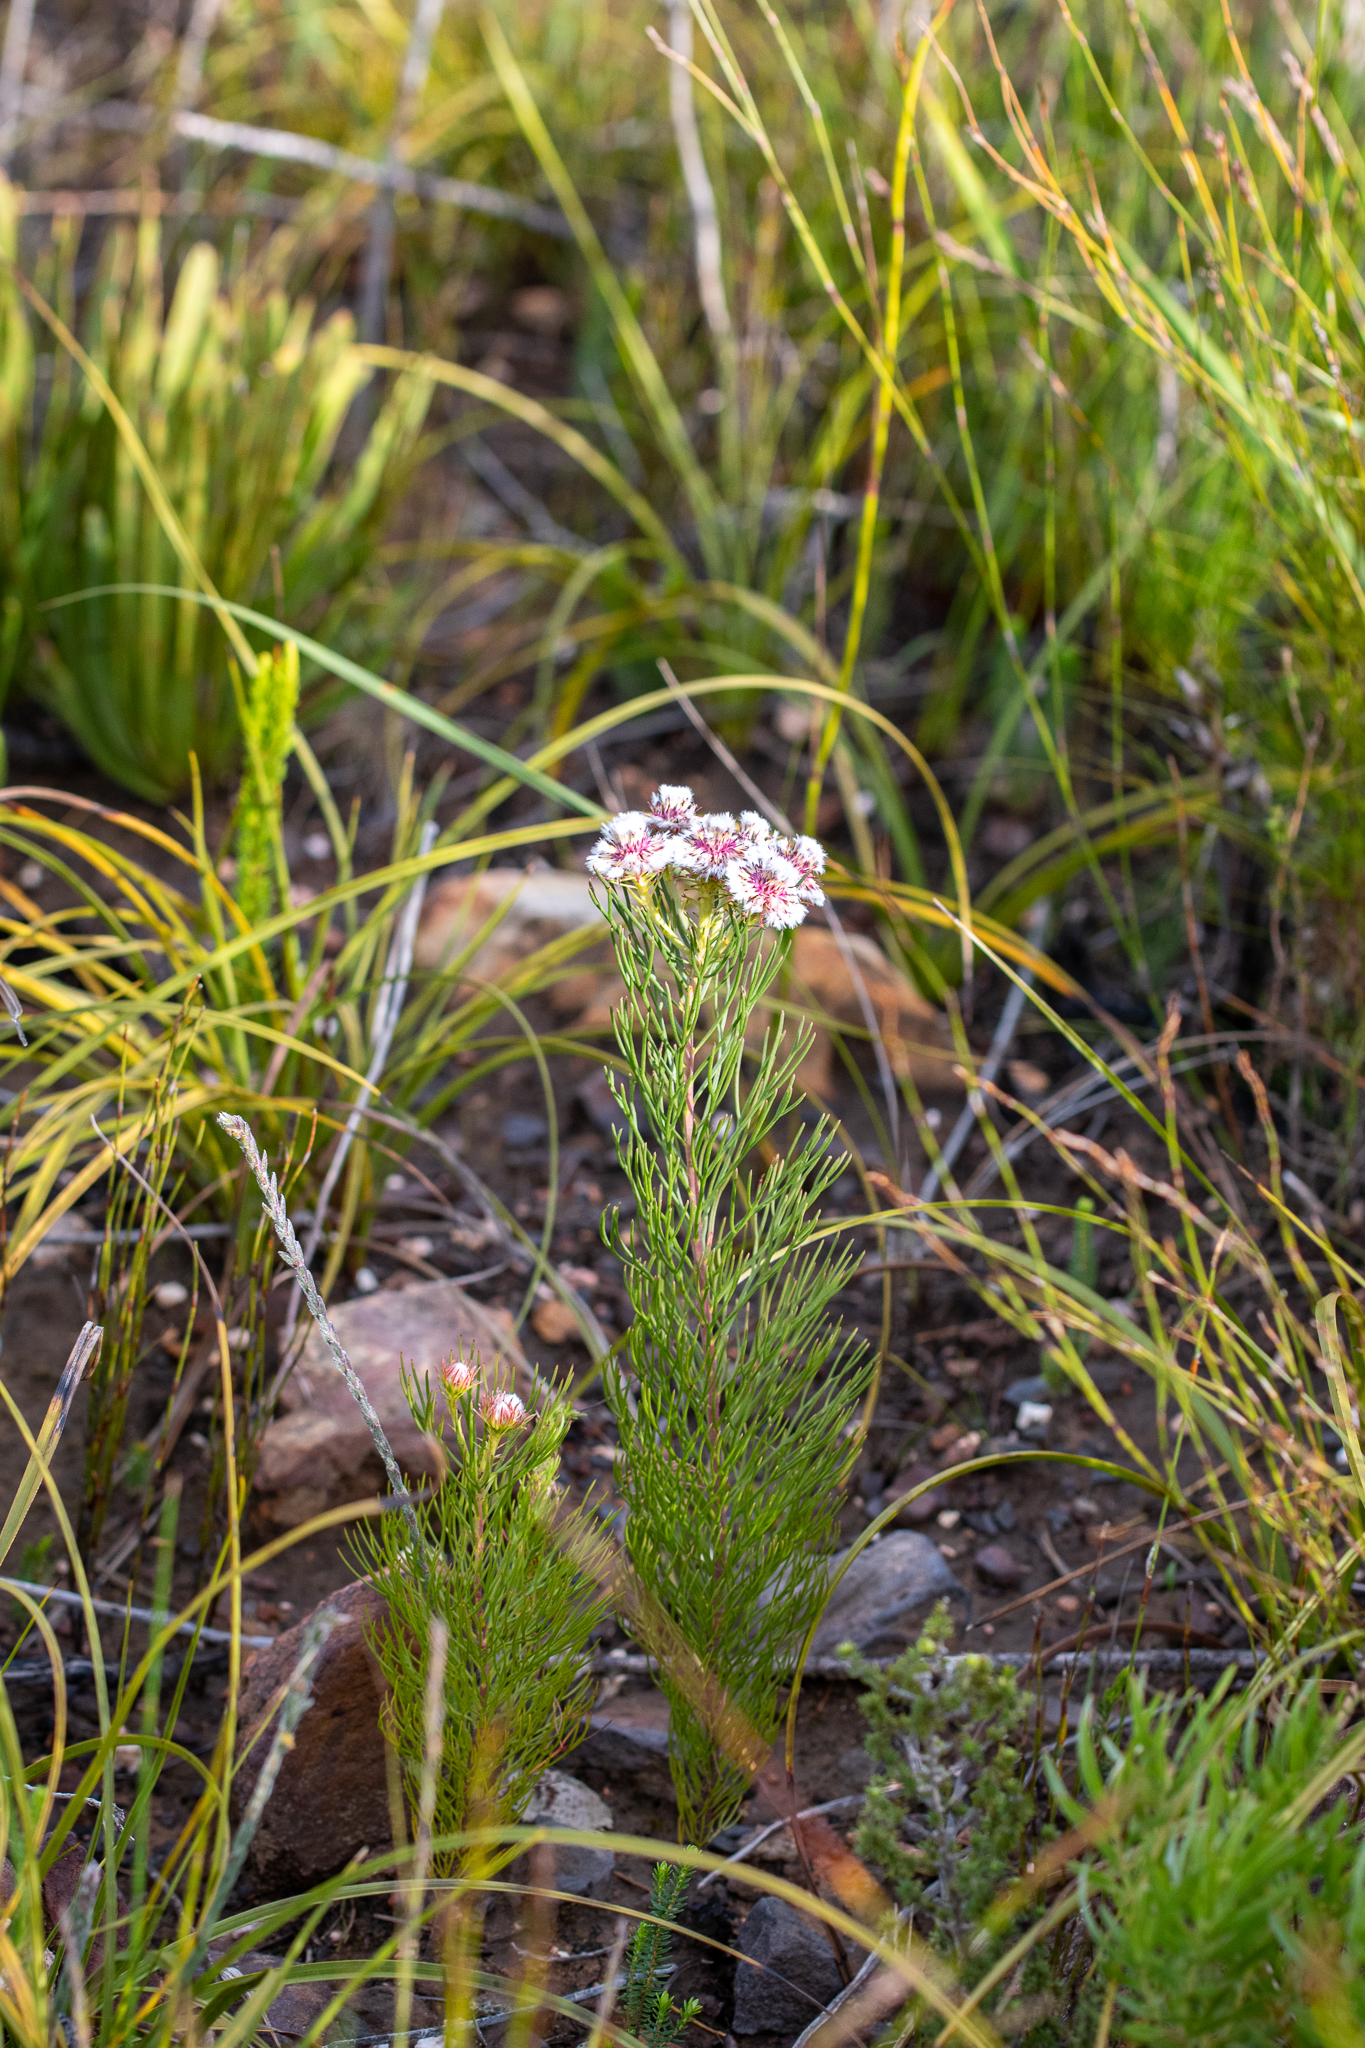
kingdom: Plantae
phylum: Tracheophyta
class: Magnoliopsida
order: Proteales
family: Proteaceae
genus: Serruria
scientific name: Serruria heterophylla
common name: Spindly spiderhead
